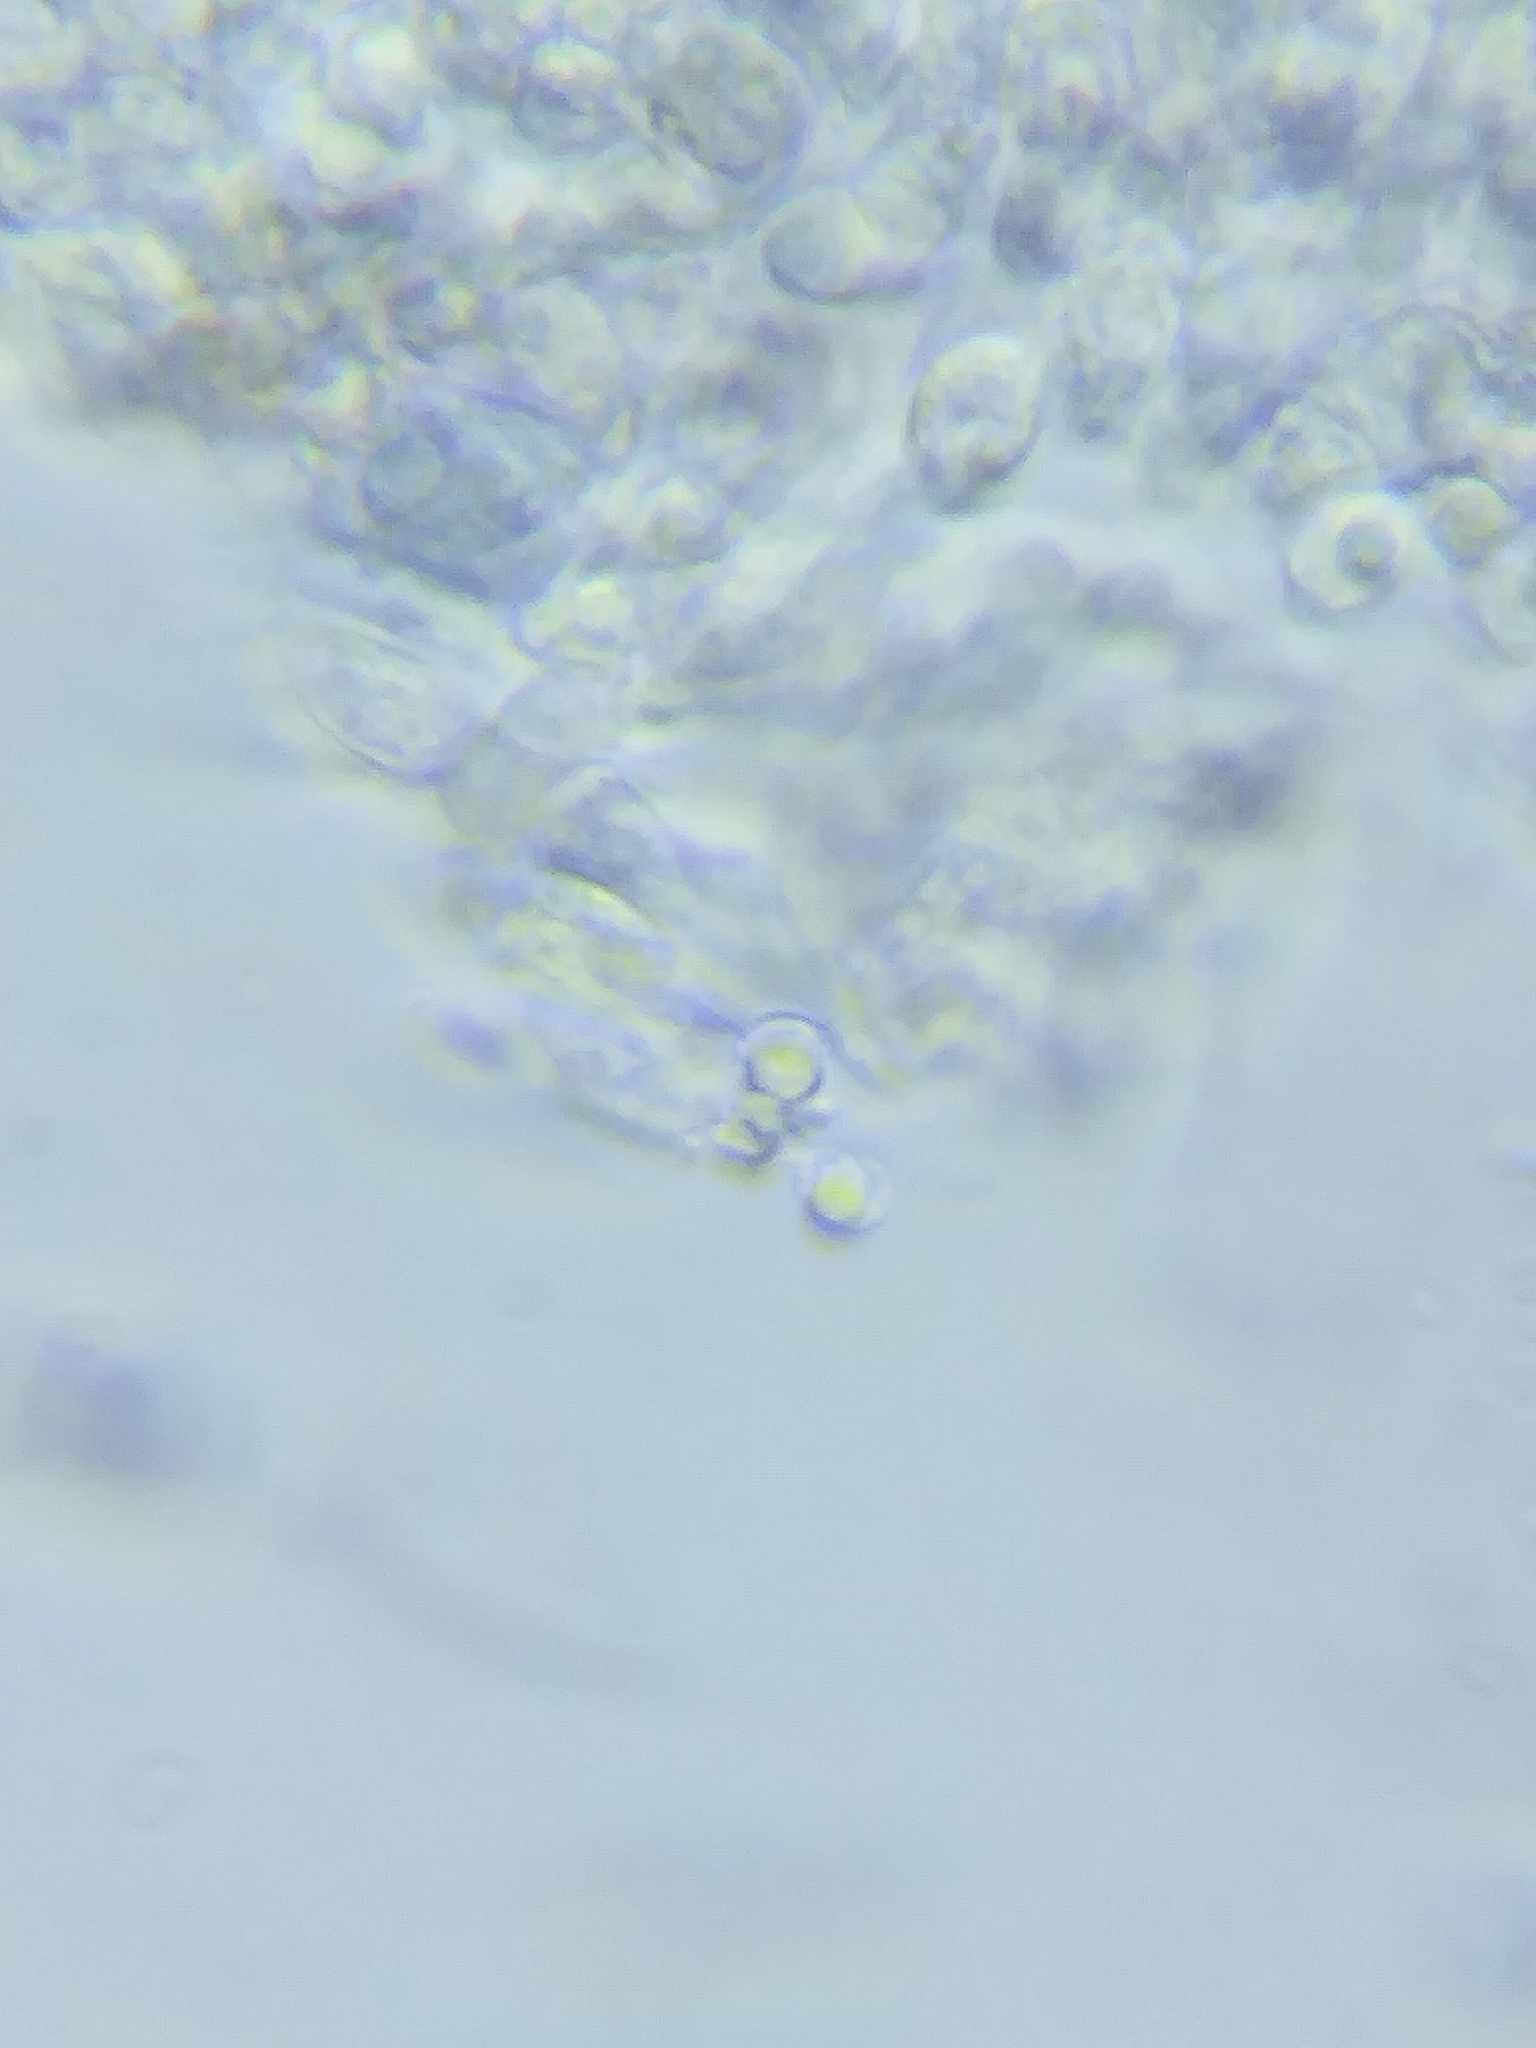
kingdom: Fungi
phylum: Basidiomycota
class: Agaricomycetes
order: Polyporales
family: Incrustoporiaceae
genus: Tyromyces
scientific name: Tyromyces galactinus
